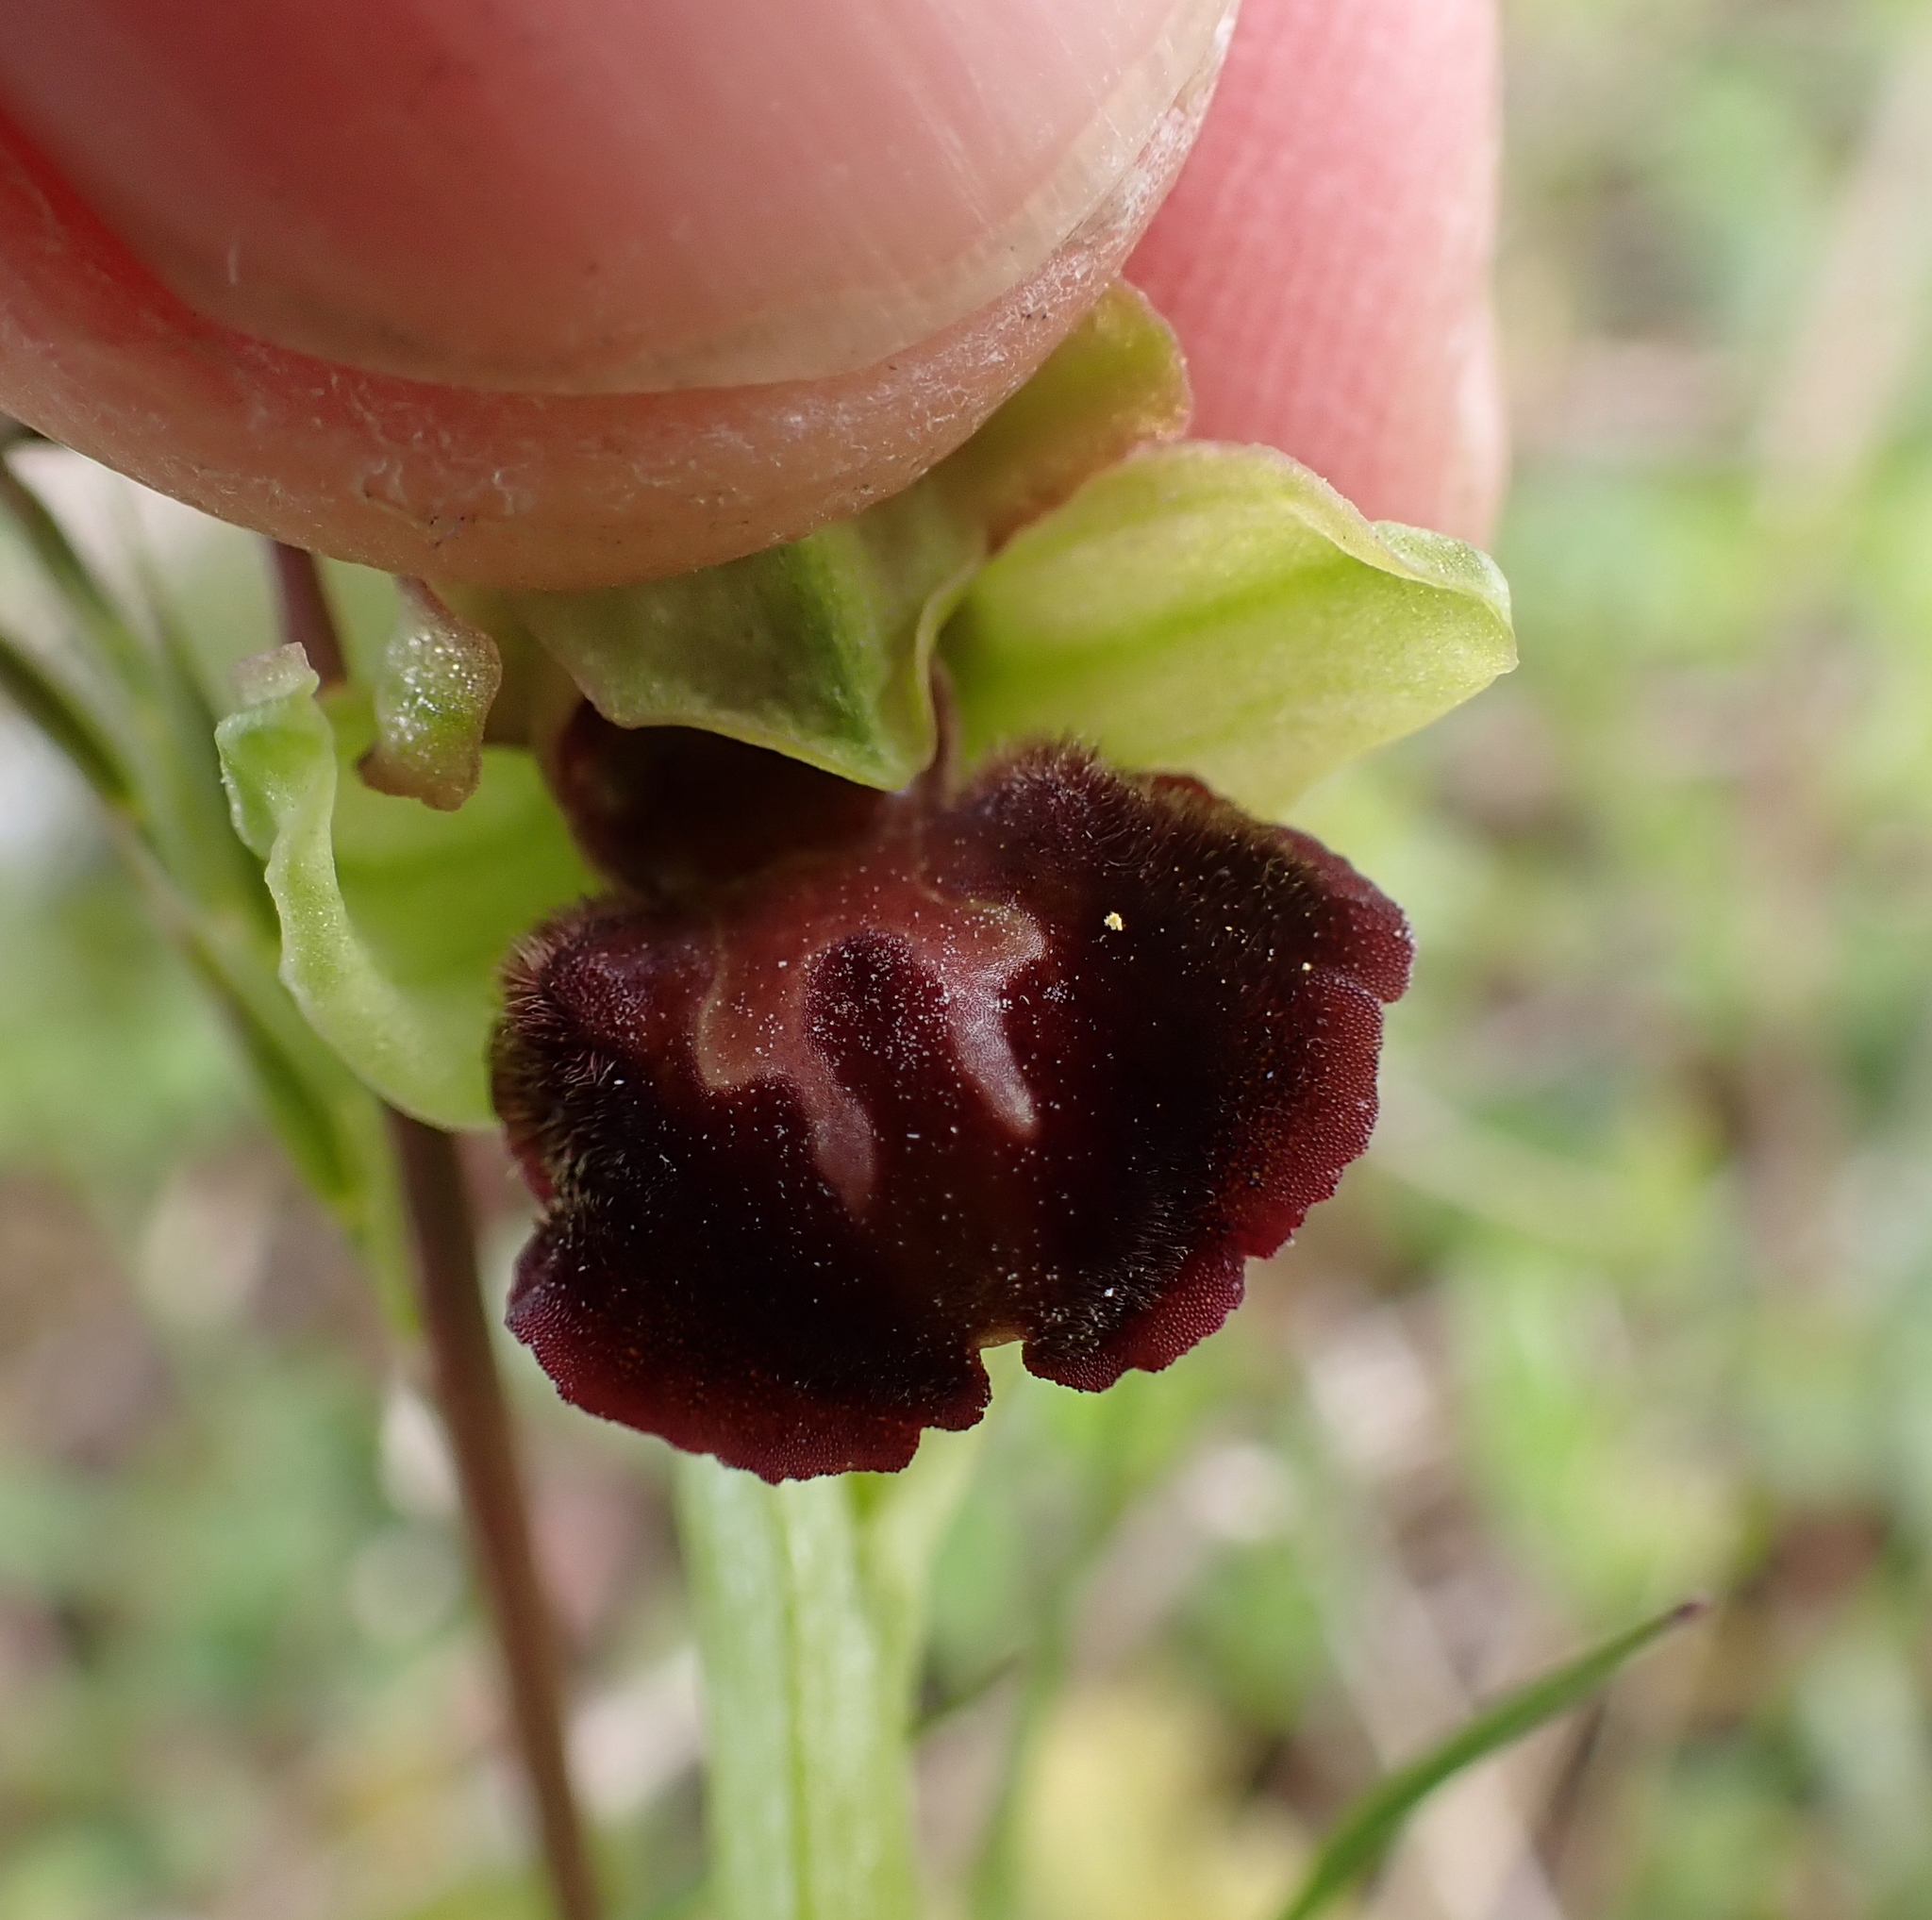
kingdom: Plantae
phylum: Tracheophyta
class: Liliopsida
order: Asparagales
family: Orchidaceae
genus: Ophrys
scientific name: Ophrys sphegodes
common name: Early spider-orchid
